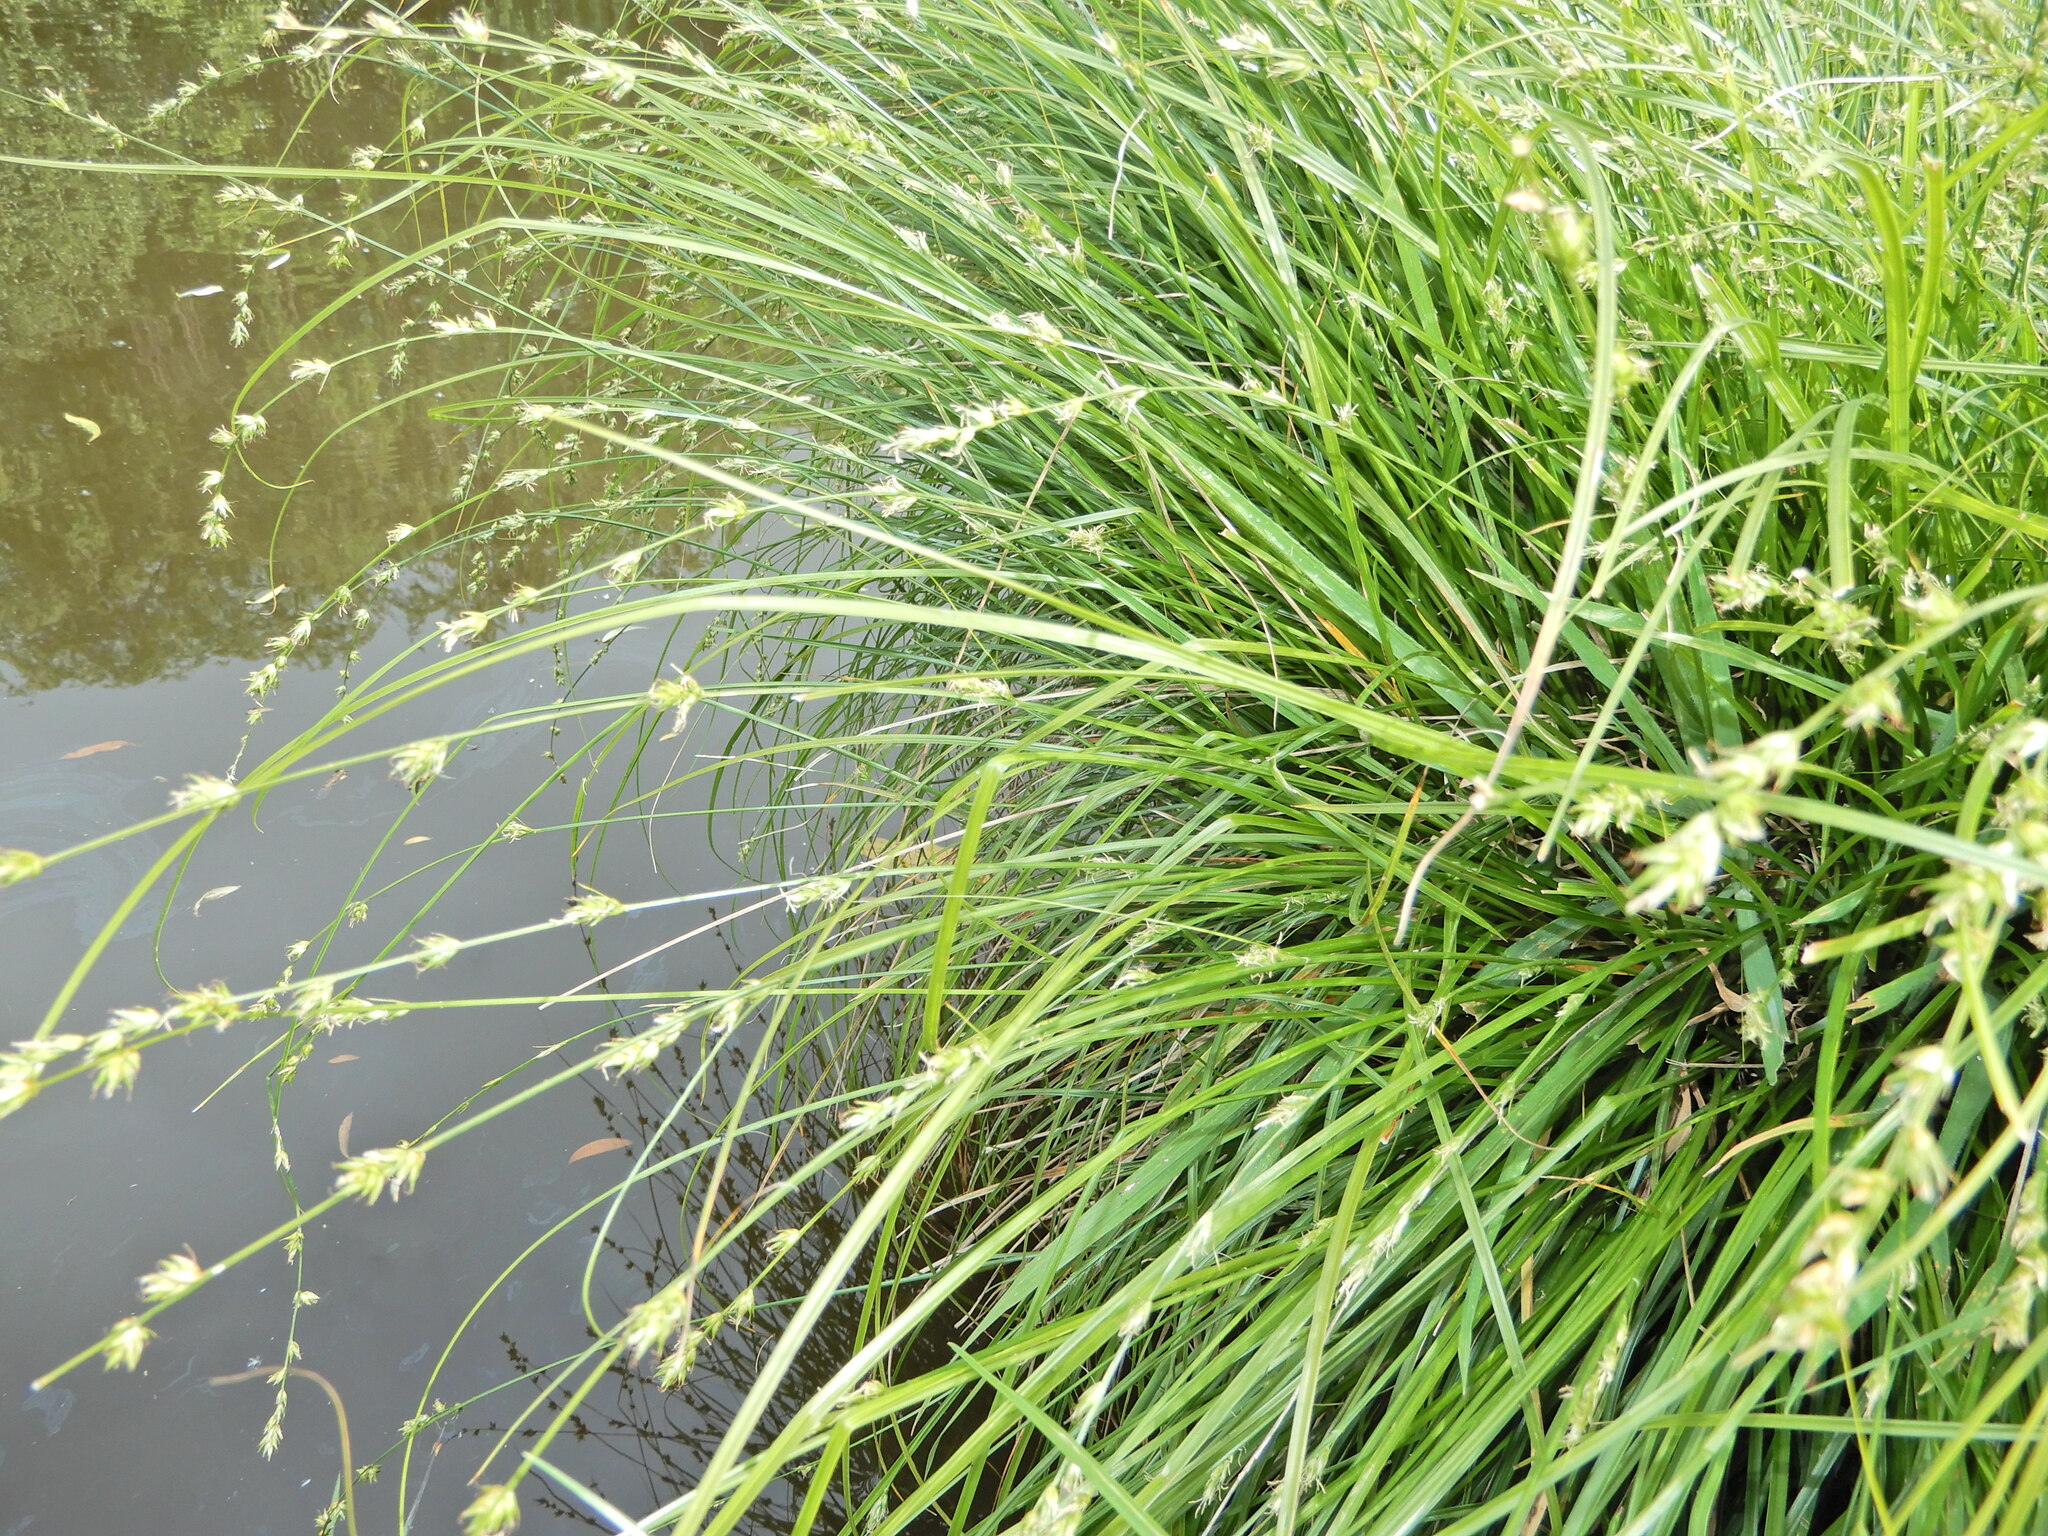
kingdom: Plantae
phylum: Tracheophyta
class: Liliopsida
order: Poales
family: Cyperaceae
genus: Carex
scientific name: Carex divulsa
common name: Grassland sedge
